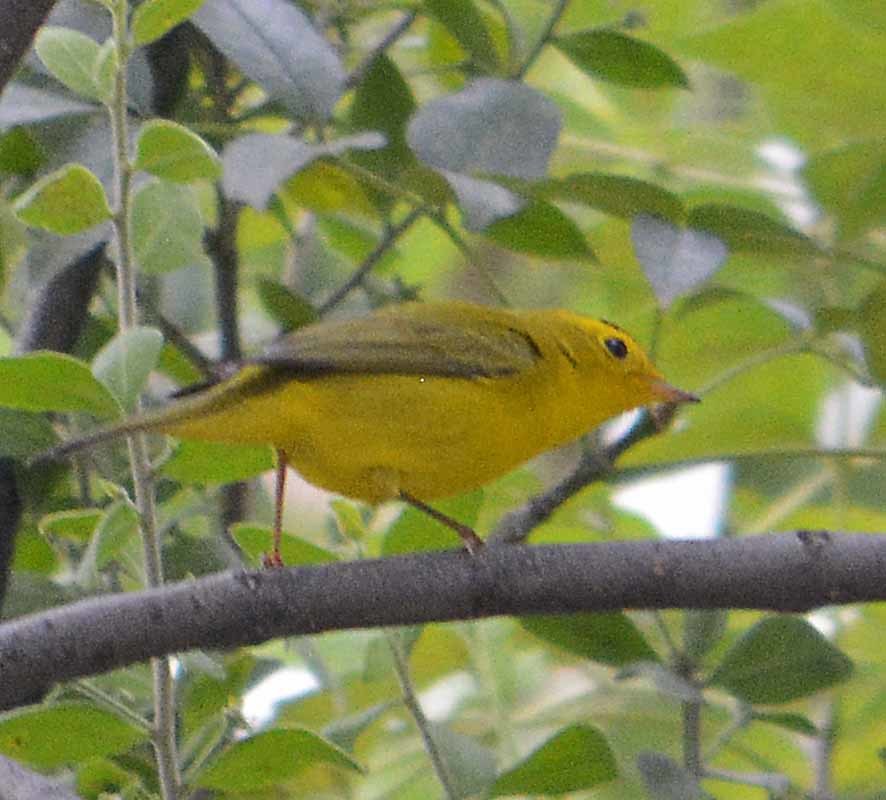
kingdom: Animalia
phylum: Chordata
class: Aves
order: Passeriformes
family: Parulidae
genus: Cardellina
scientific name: Cardellina pusilla
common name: Wilson's warbler
